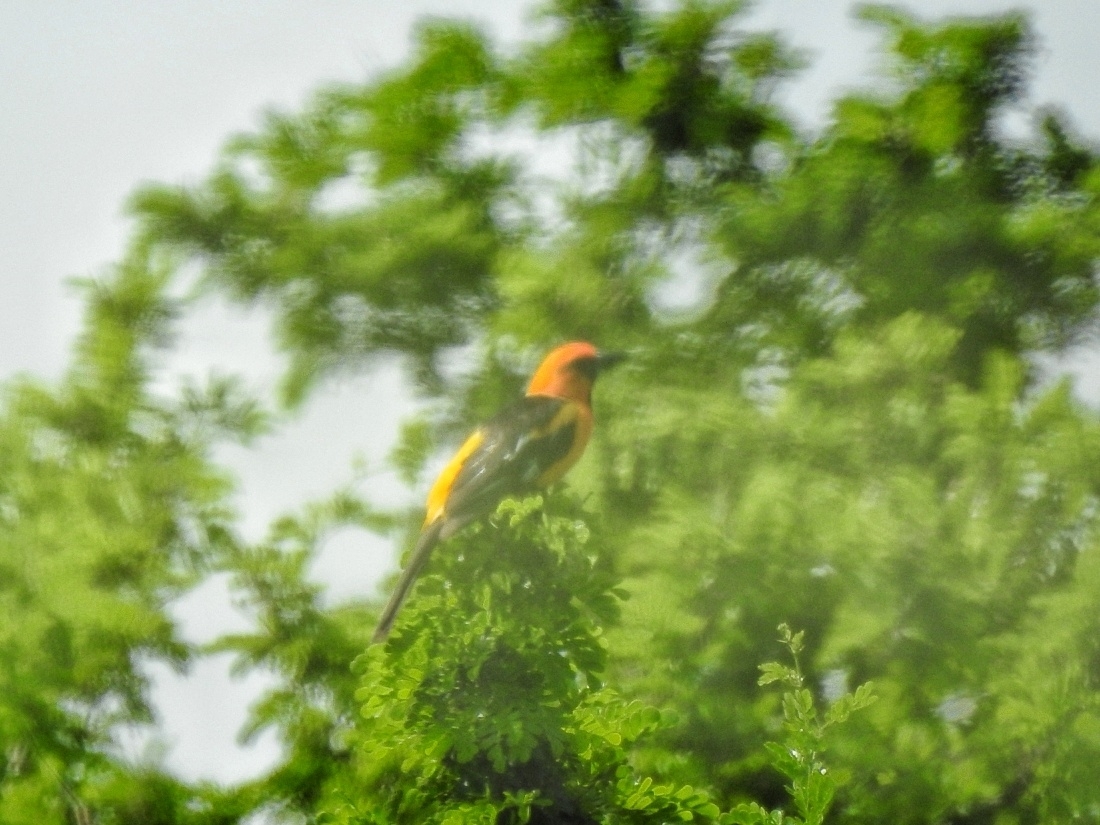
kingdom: Animalia
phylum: Chordata
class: Aves
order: Passeriformes
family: Icteridae
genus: Icterus
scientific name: Icterus gularis
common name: Altamira oriole
